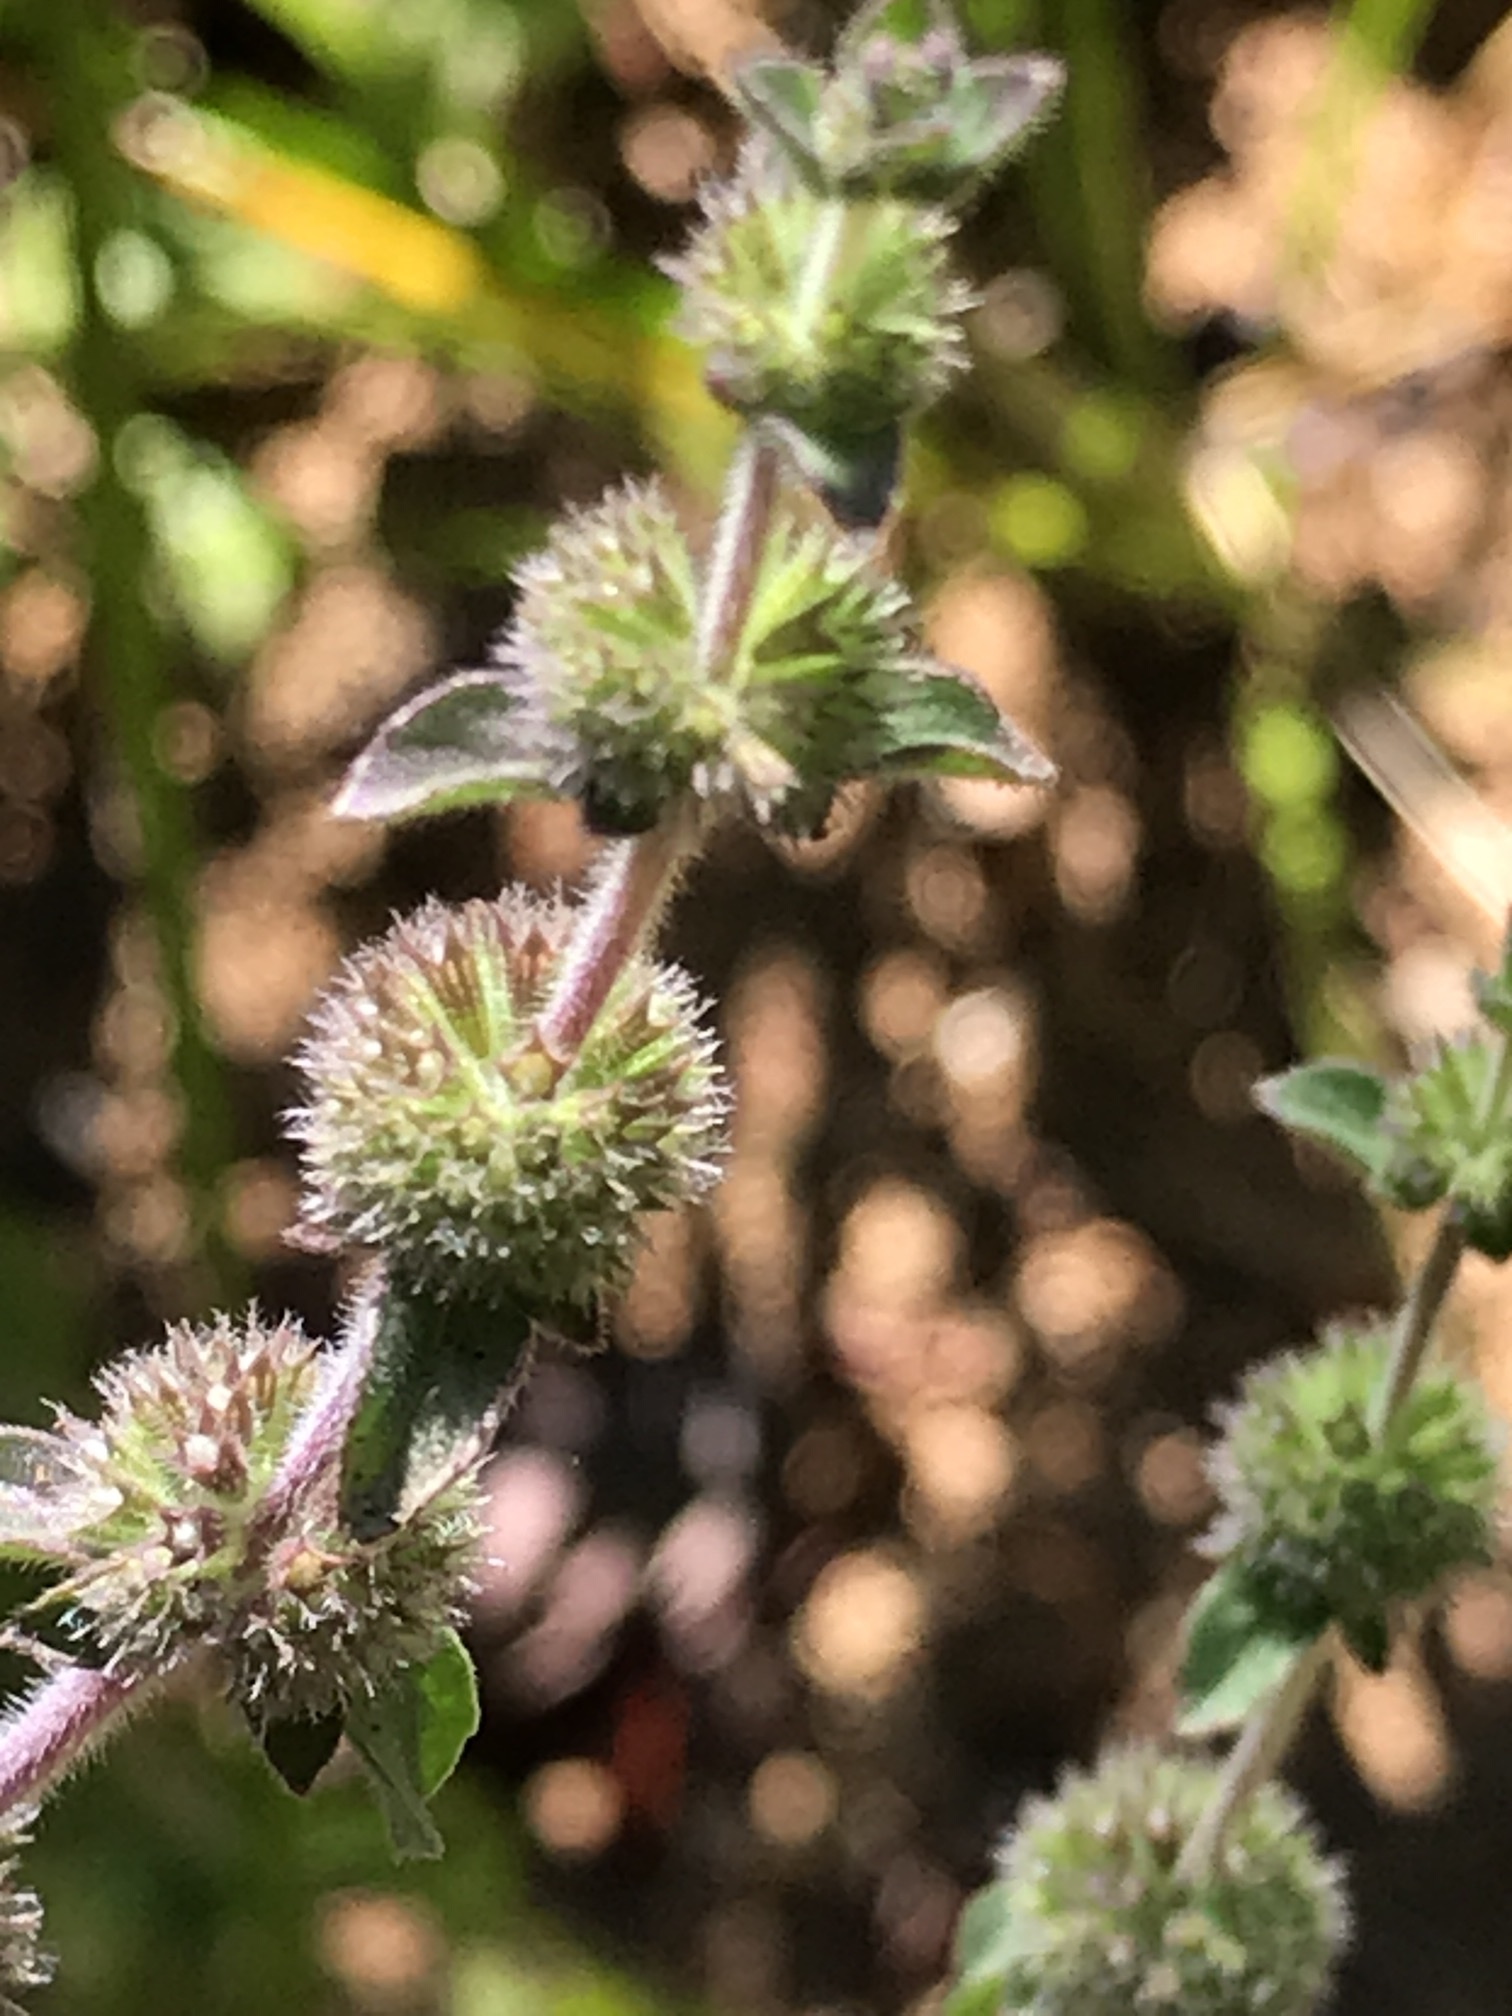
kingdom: Plantae
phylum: Tracheophyta
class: Magnoliopsida
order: Lamiales
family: Lamiaceae
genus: Mentha
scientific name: Mentha pulegium
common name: Pennyroyal
